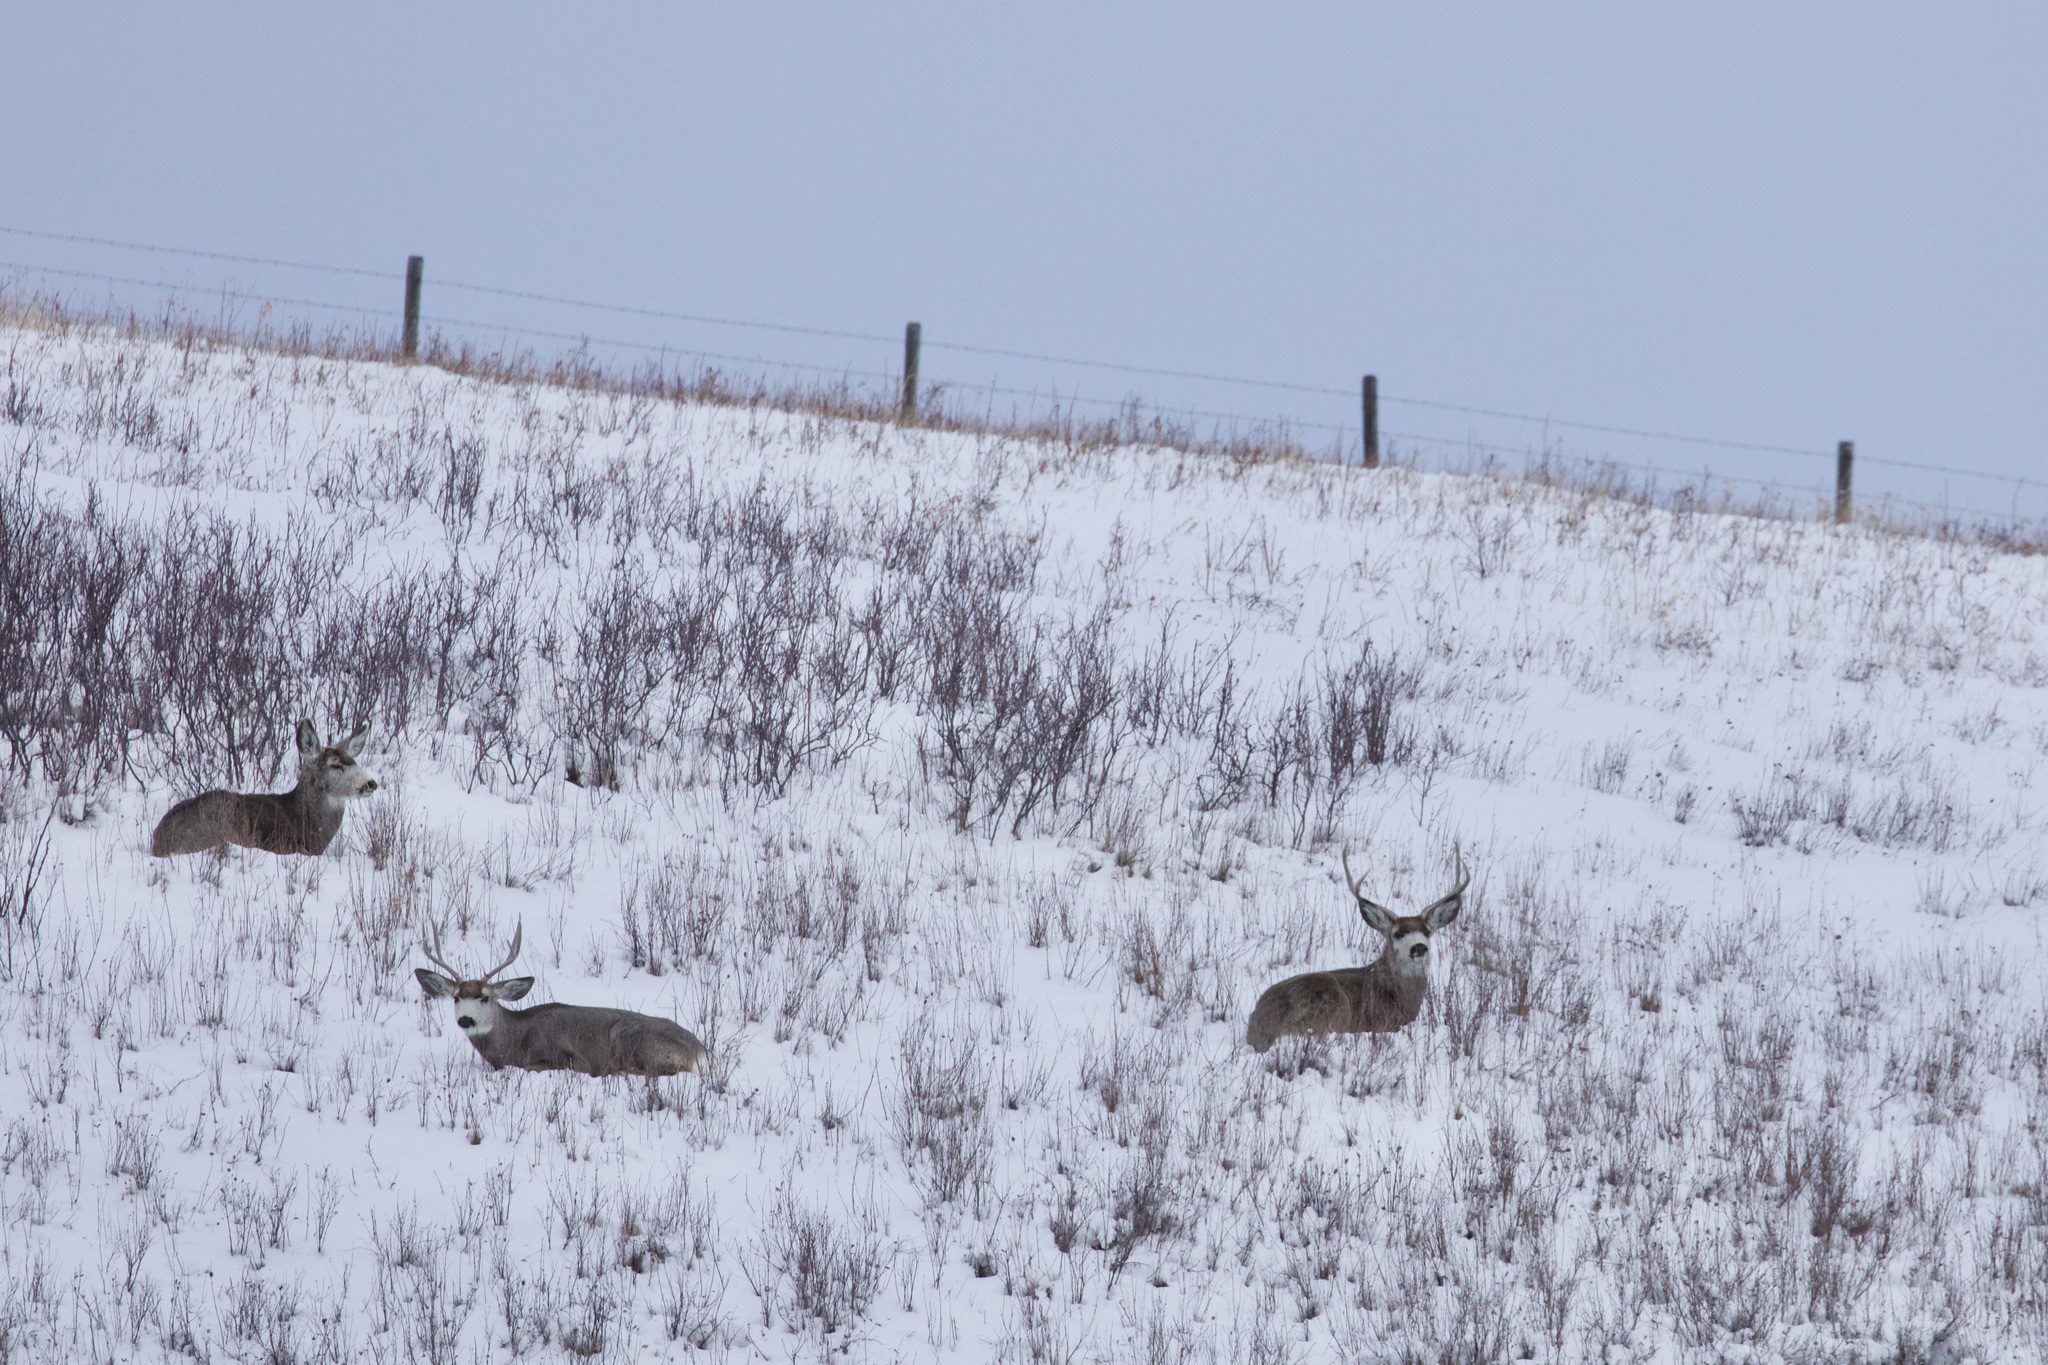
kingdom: Animalia
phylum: Chordata
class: Mammalia
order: Artiodactyla
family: Cervidae
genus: Odocoileus
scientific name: Odocoileus hemionus
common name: Mule deer
